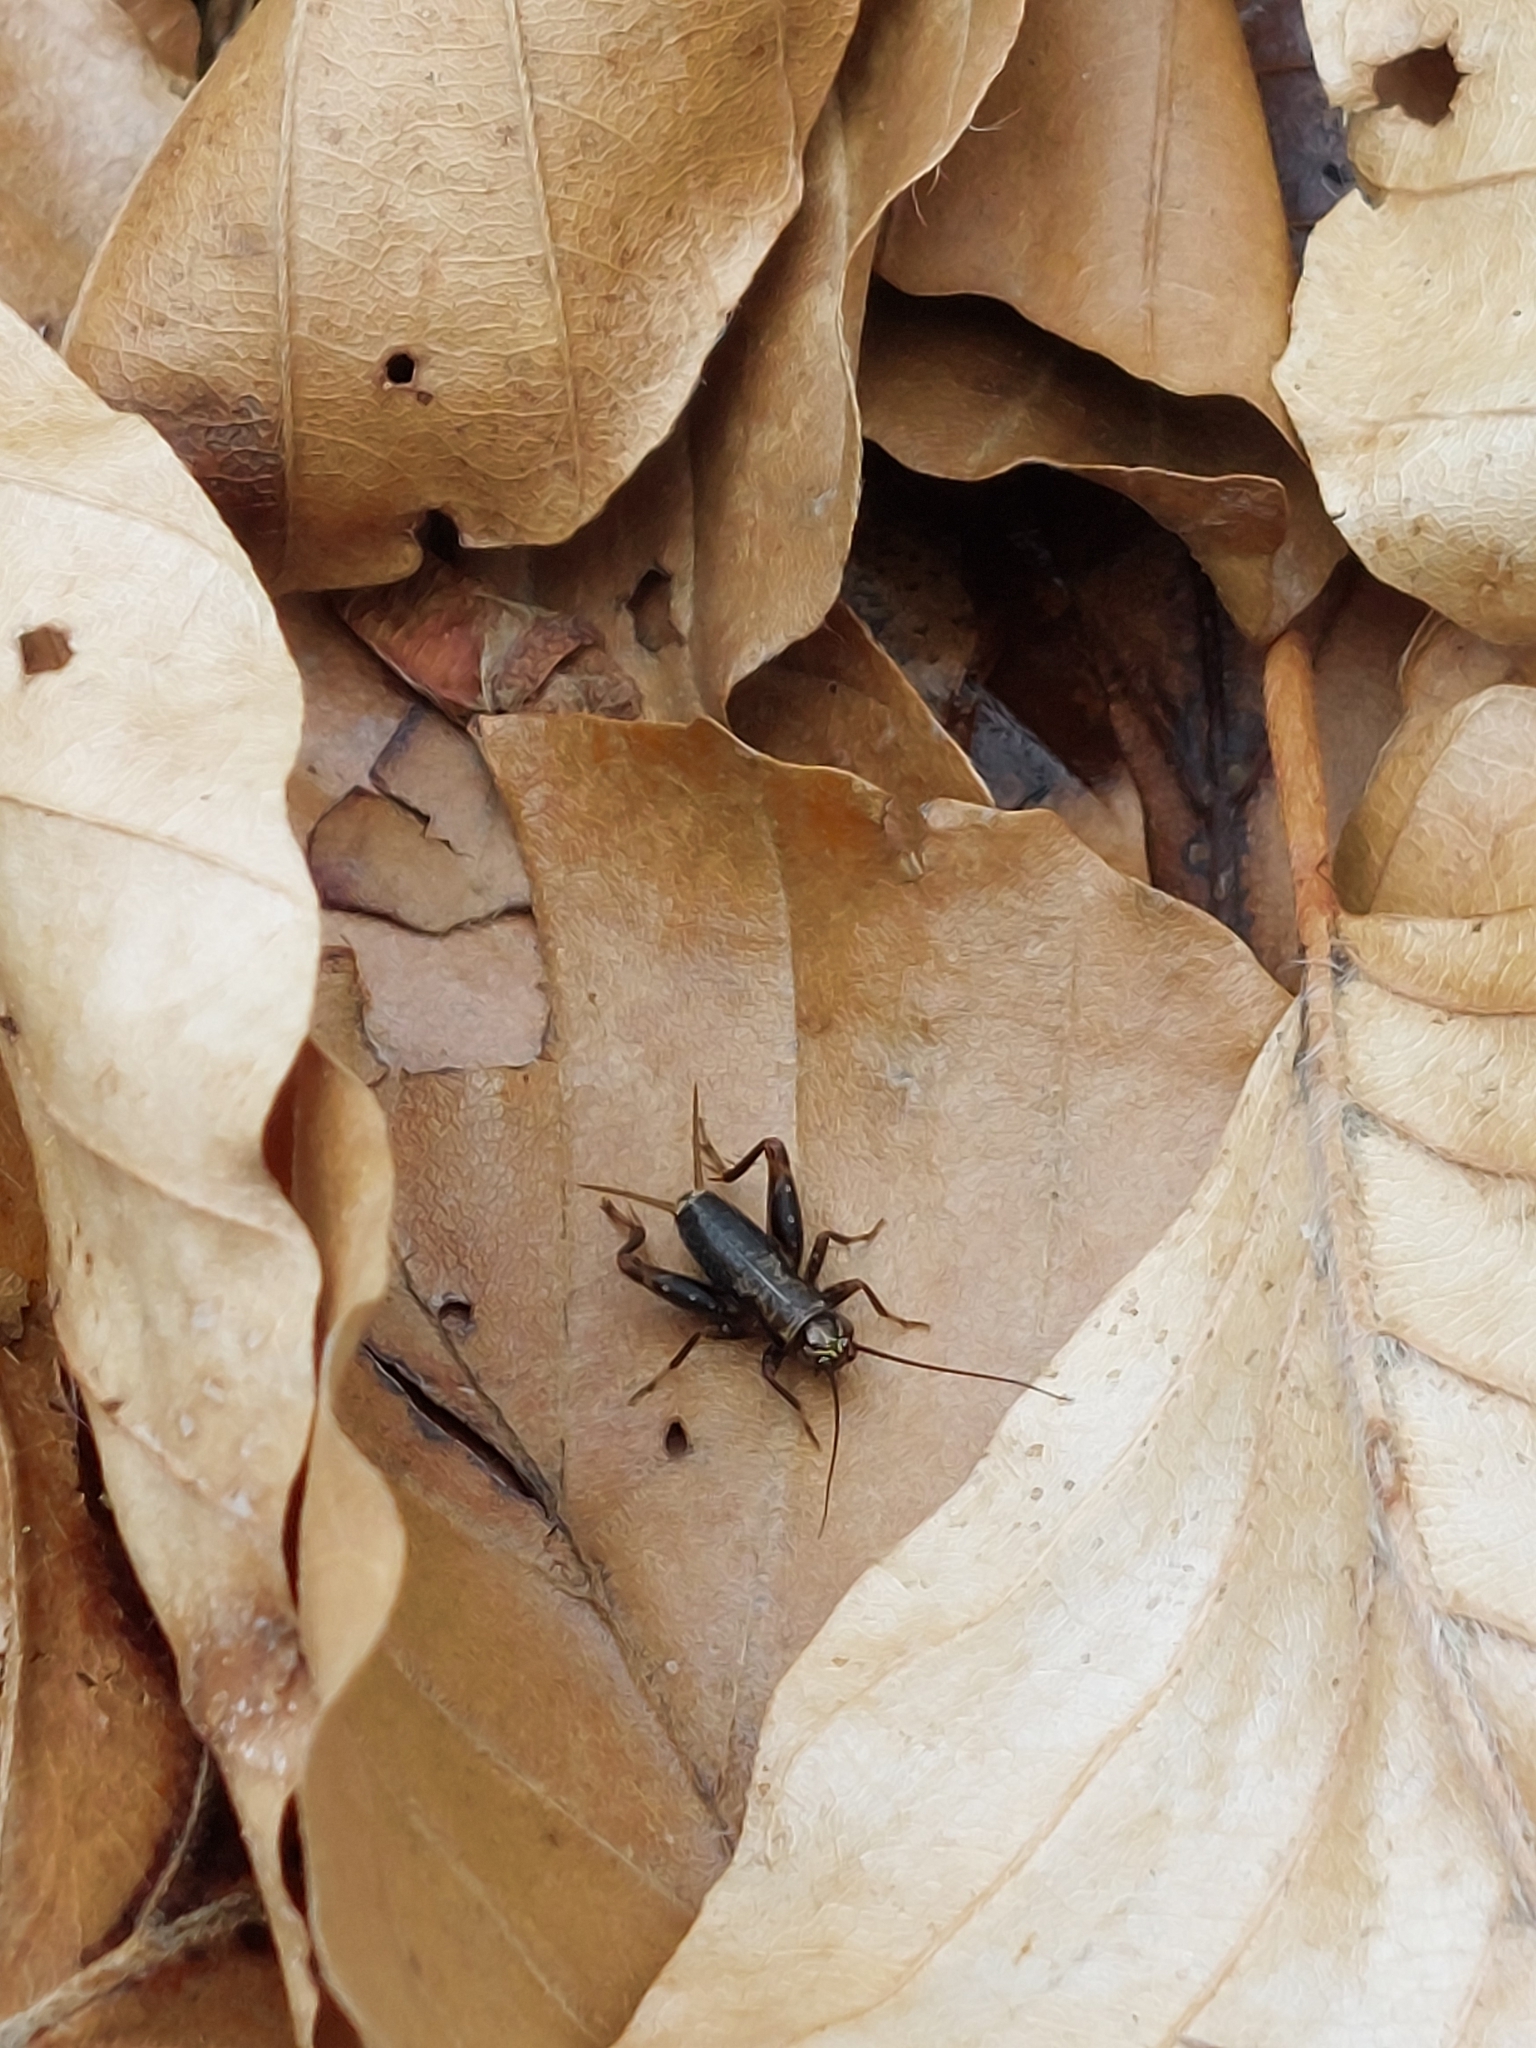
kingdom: Animalia
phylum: Arthropoda
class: Insecta
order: Orthoptera
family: Trigonidiidae
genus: Nemobius
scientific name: Nemobius sylvestris
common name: Wood-cricket
